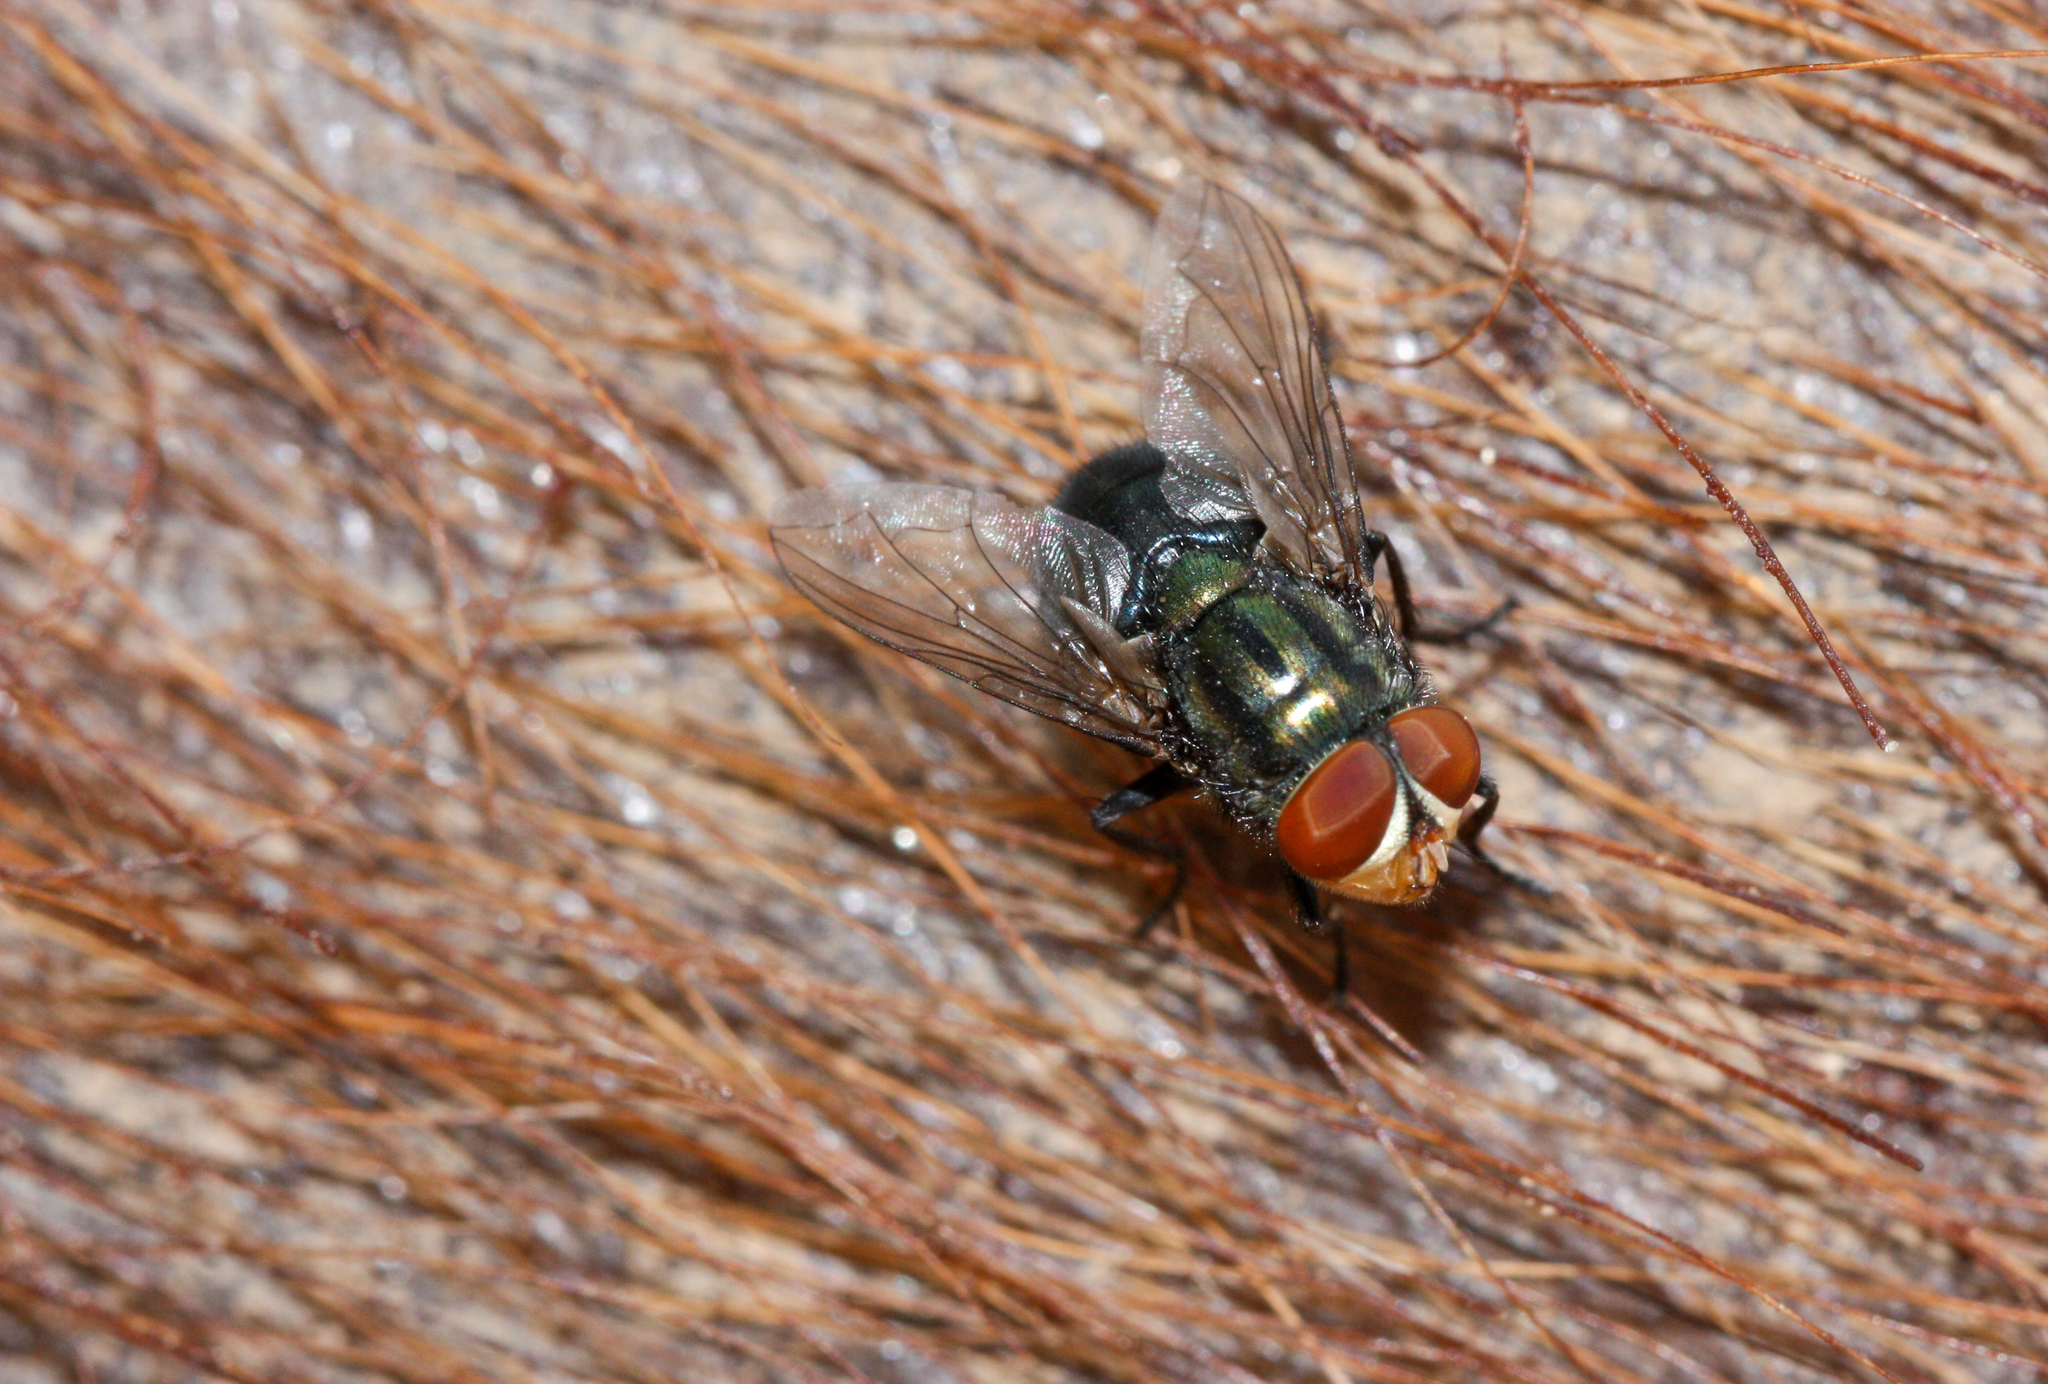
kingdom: Animalia
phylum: Arthropoda
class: Insecta
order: Diptera
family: Calliphoridae
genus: Cochliomyia
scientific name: Cochliomyia macellaria
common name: Secondary screwworm
